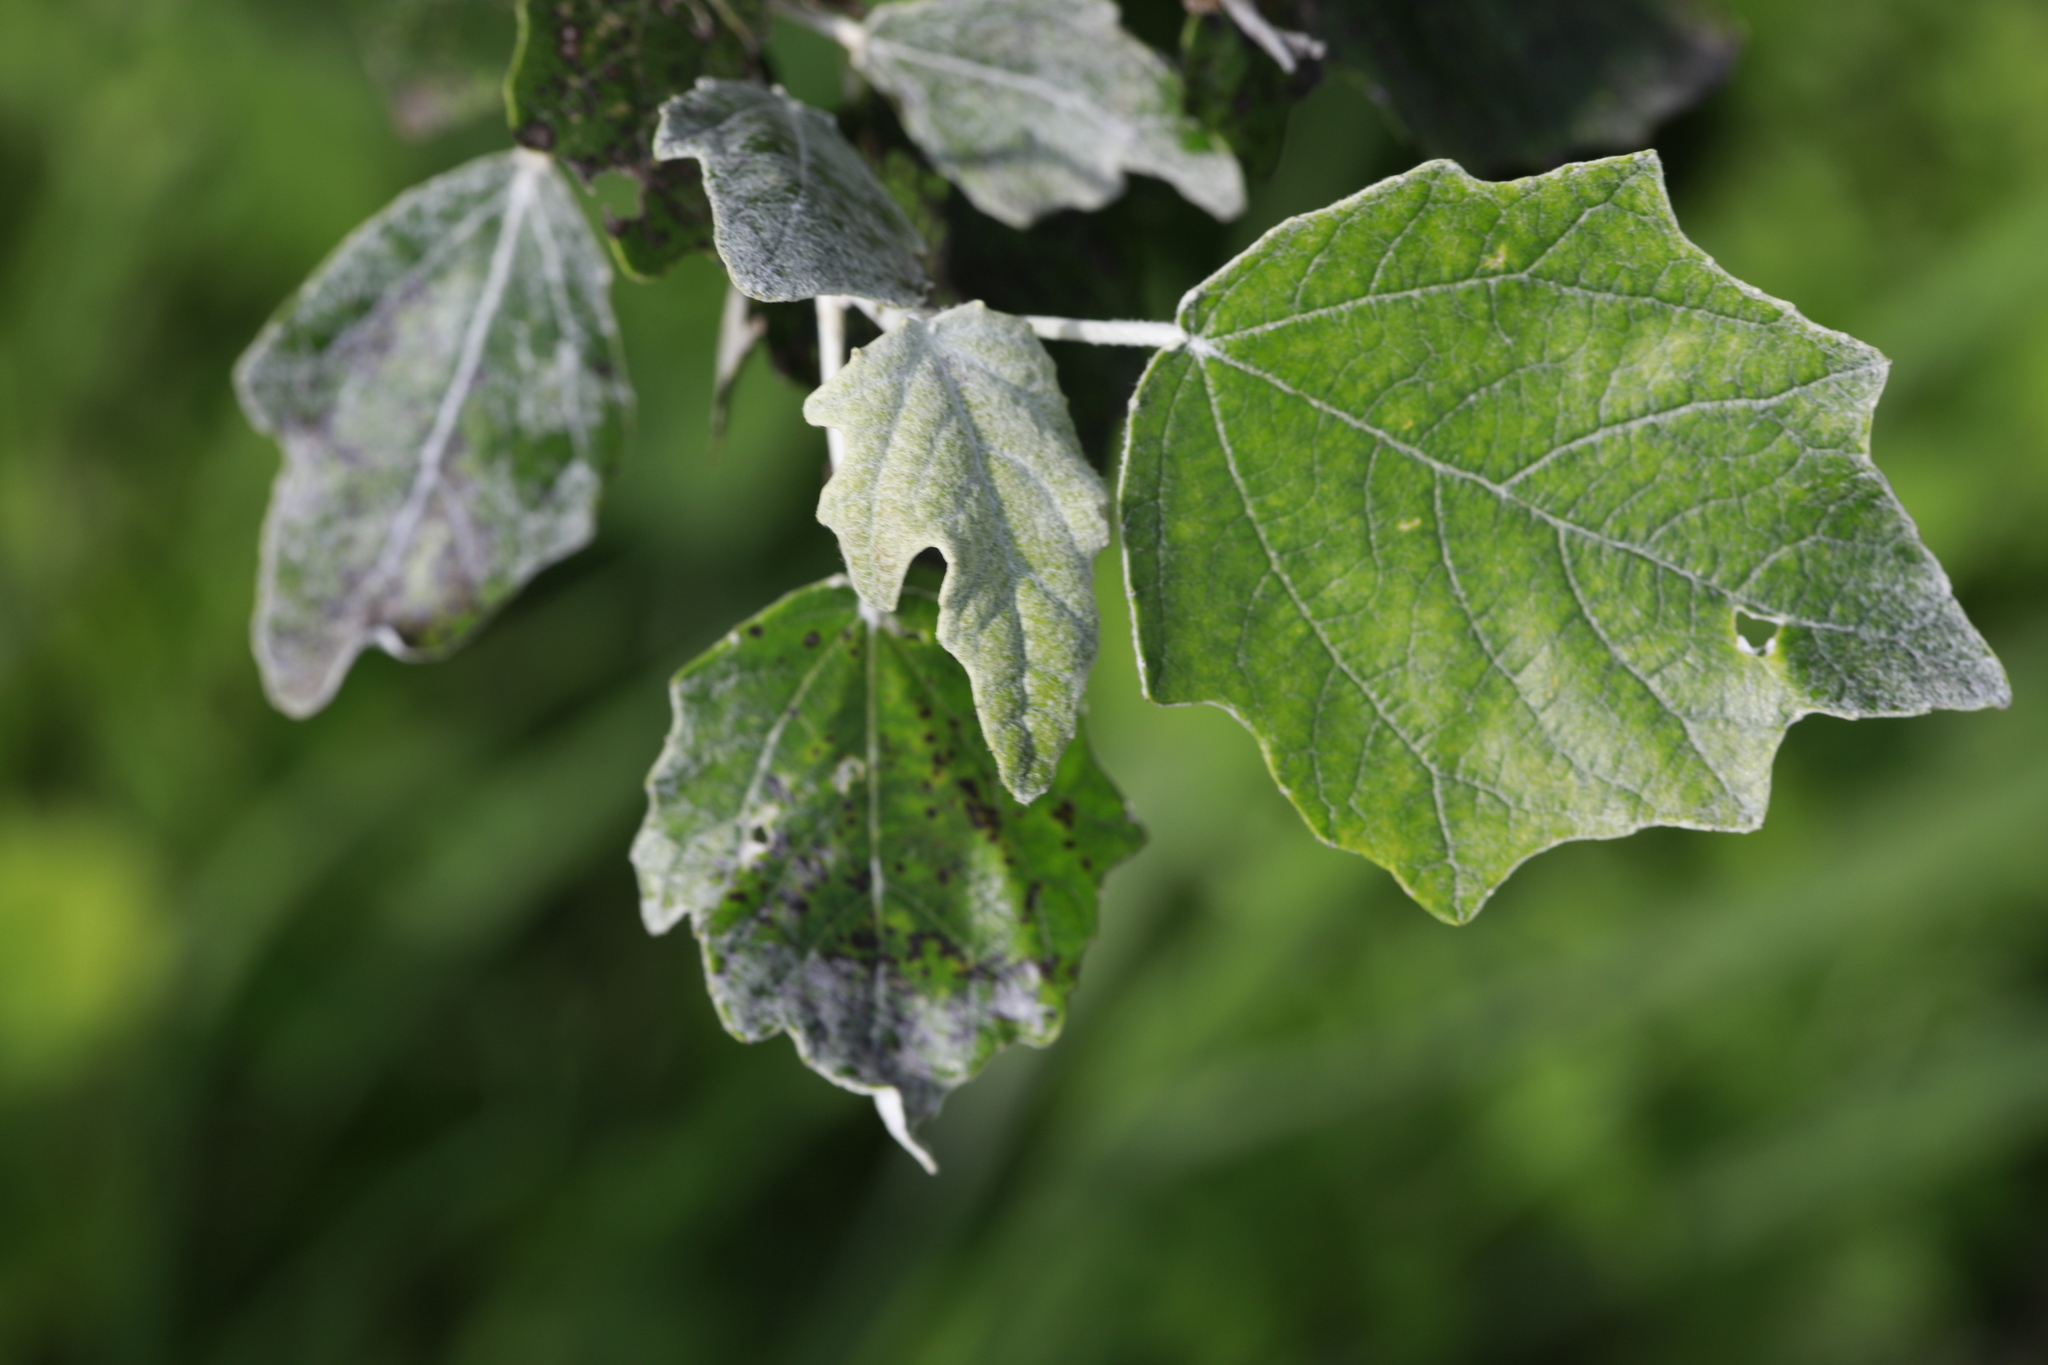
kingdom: Plantae
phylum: Tracheophyta
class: Magnoliopsida
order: Malpighiales
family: Salicaceae
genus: Populus
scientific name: Populus alba
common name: White poplar
